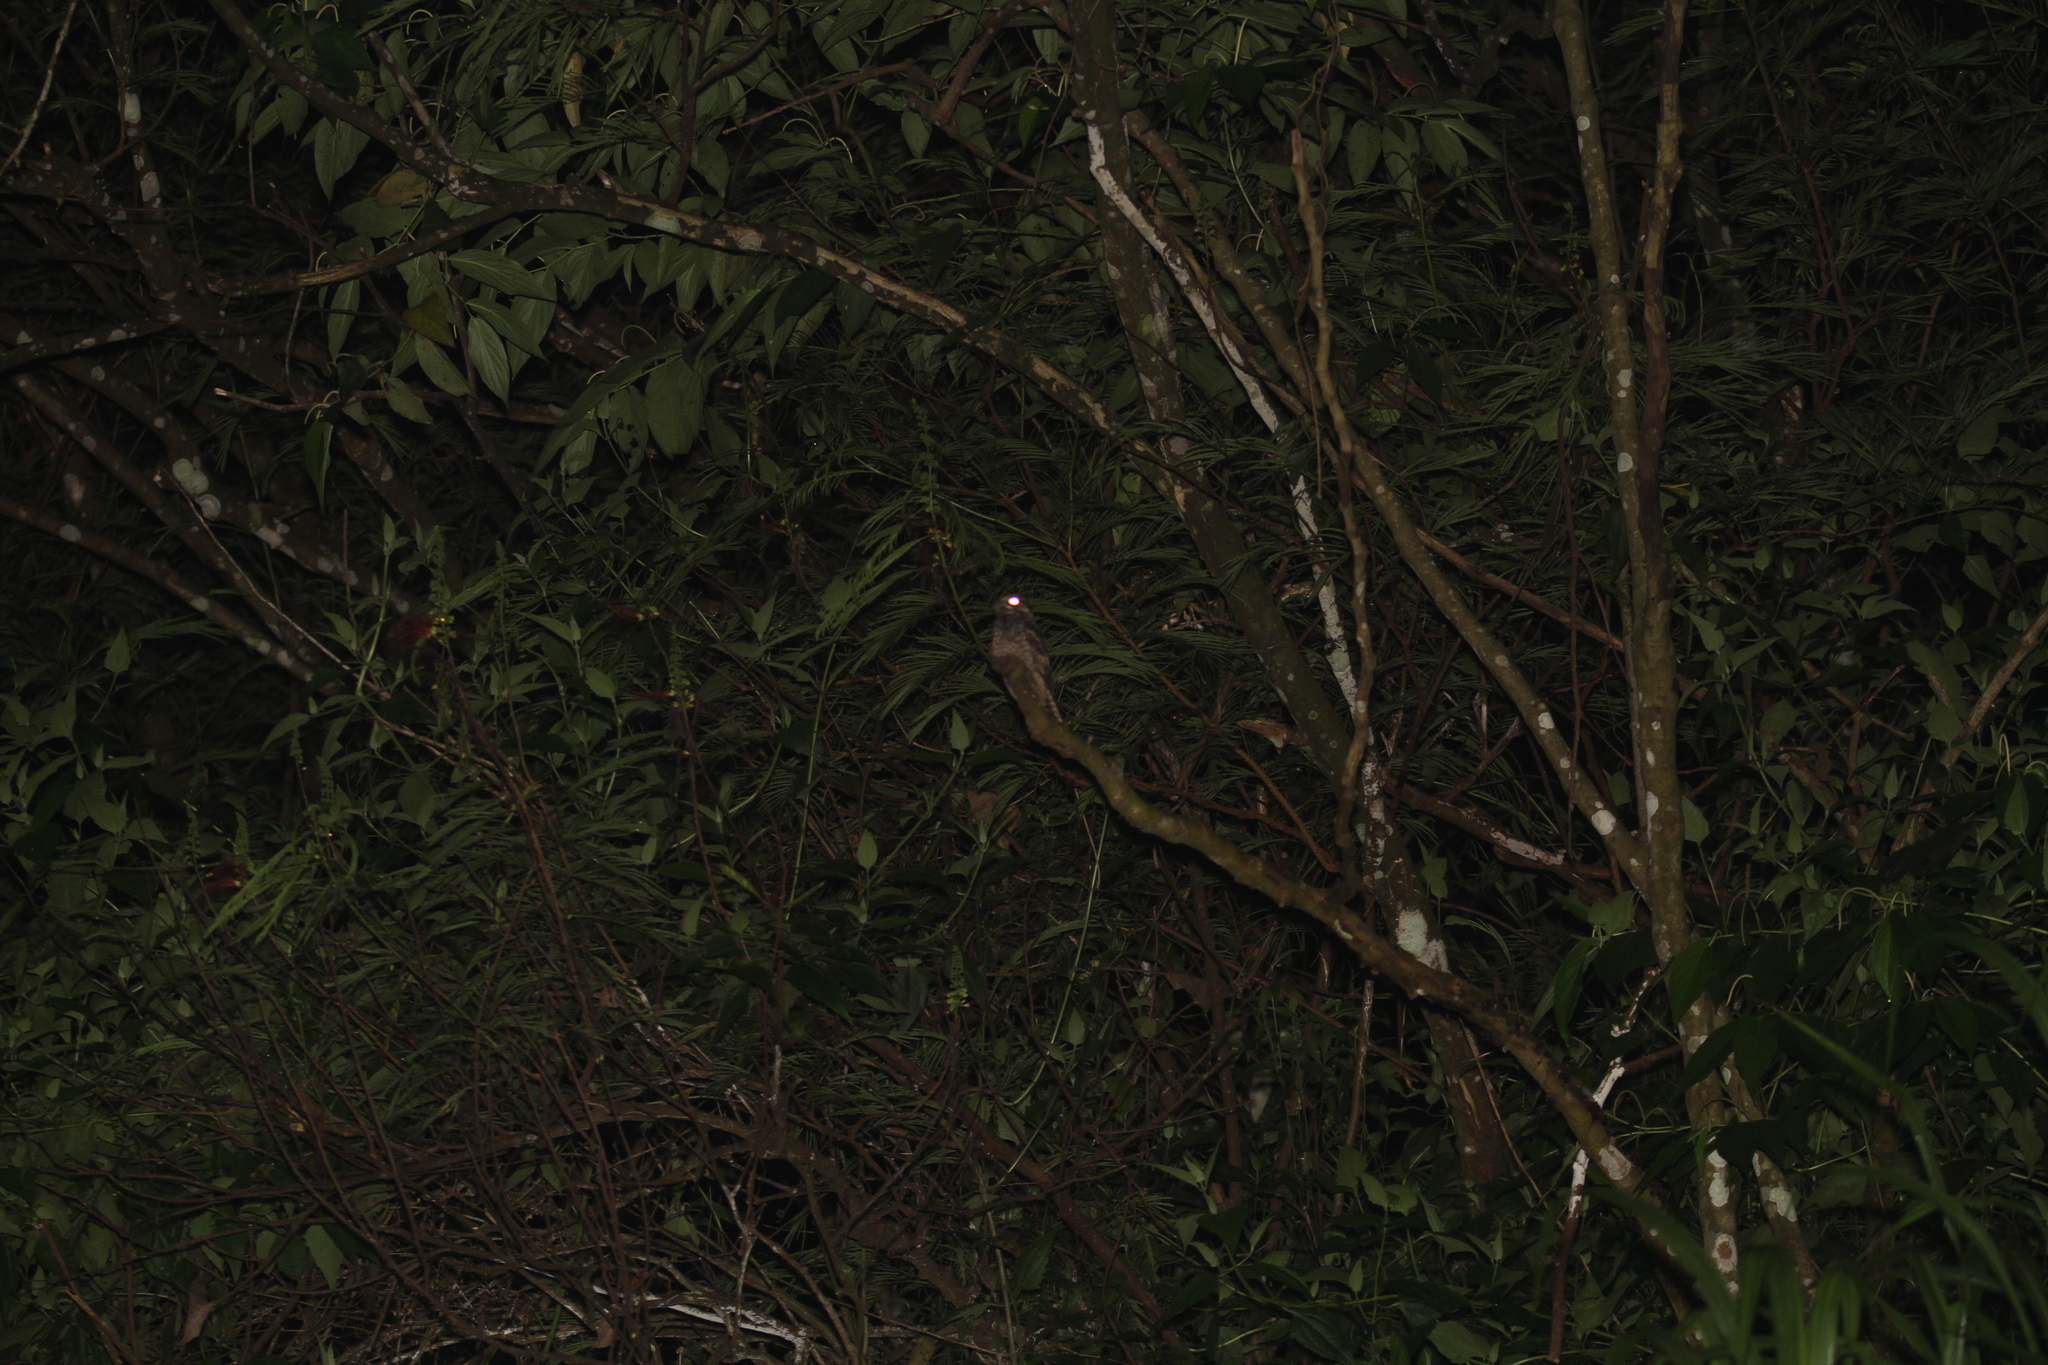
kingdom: Animalia
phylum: Chordata
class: Aves
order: Caprimulgiformes
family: Caprimulgidae
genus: Caprimulgus
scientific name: Caprimulgus macrurus
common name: Large-tailed nightjar
